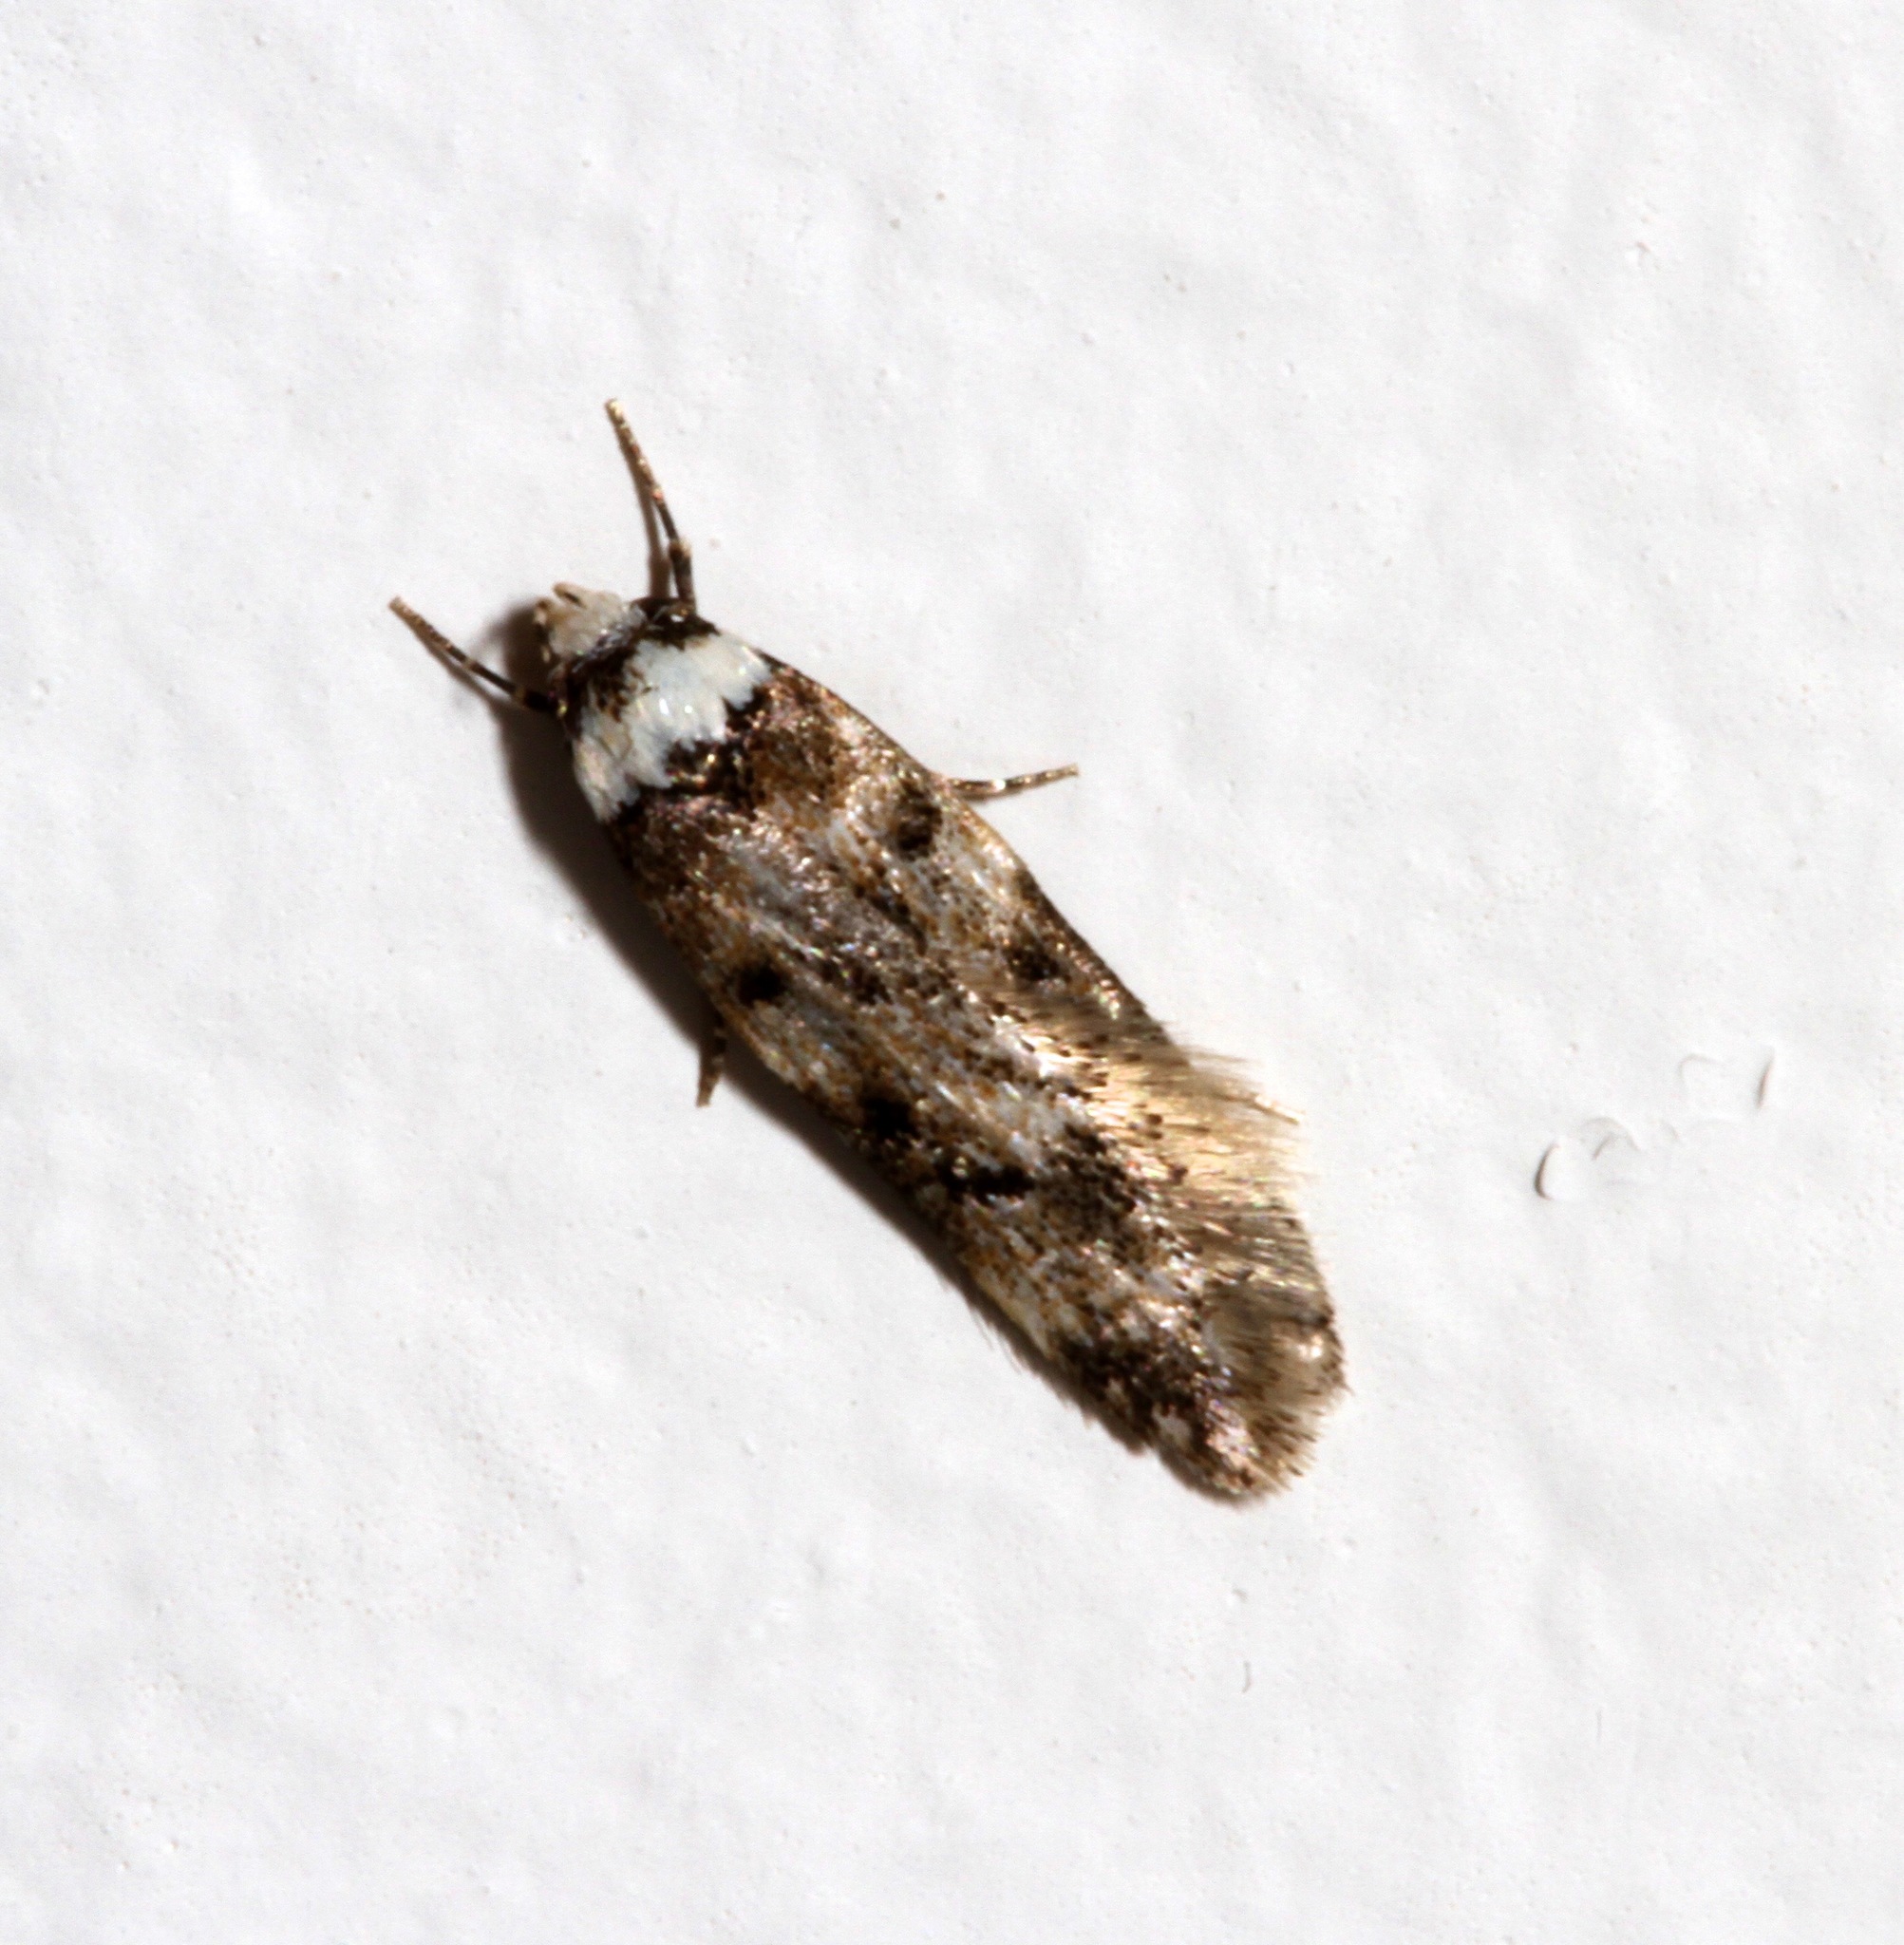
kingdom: Animalia
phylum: Arthropoda
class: Insecta
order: Lepidoptera
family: Oecophoridae
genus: Endrosis
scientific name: Endrosis sarcitrella
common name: White-shouldered house moth
